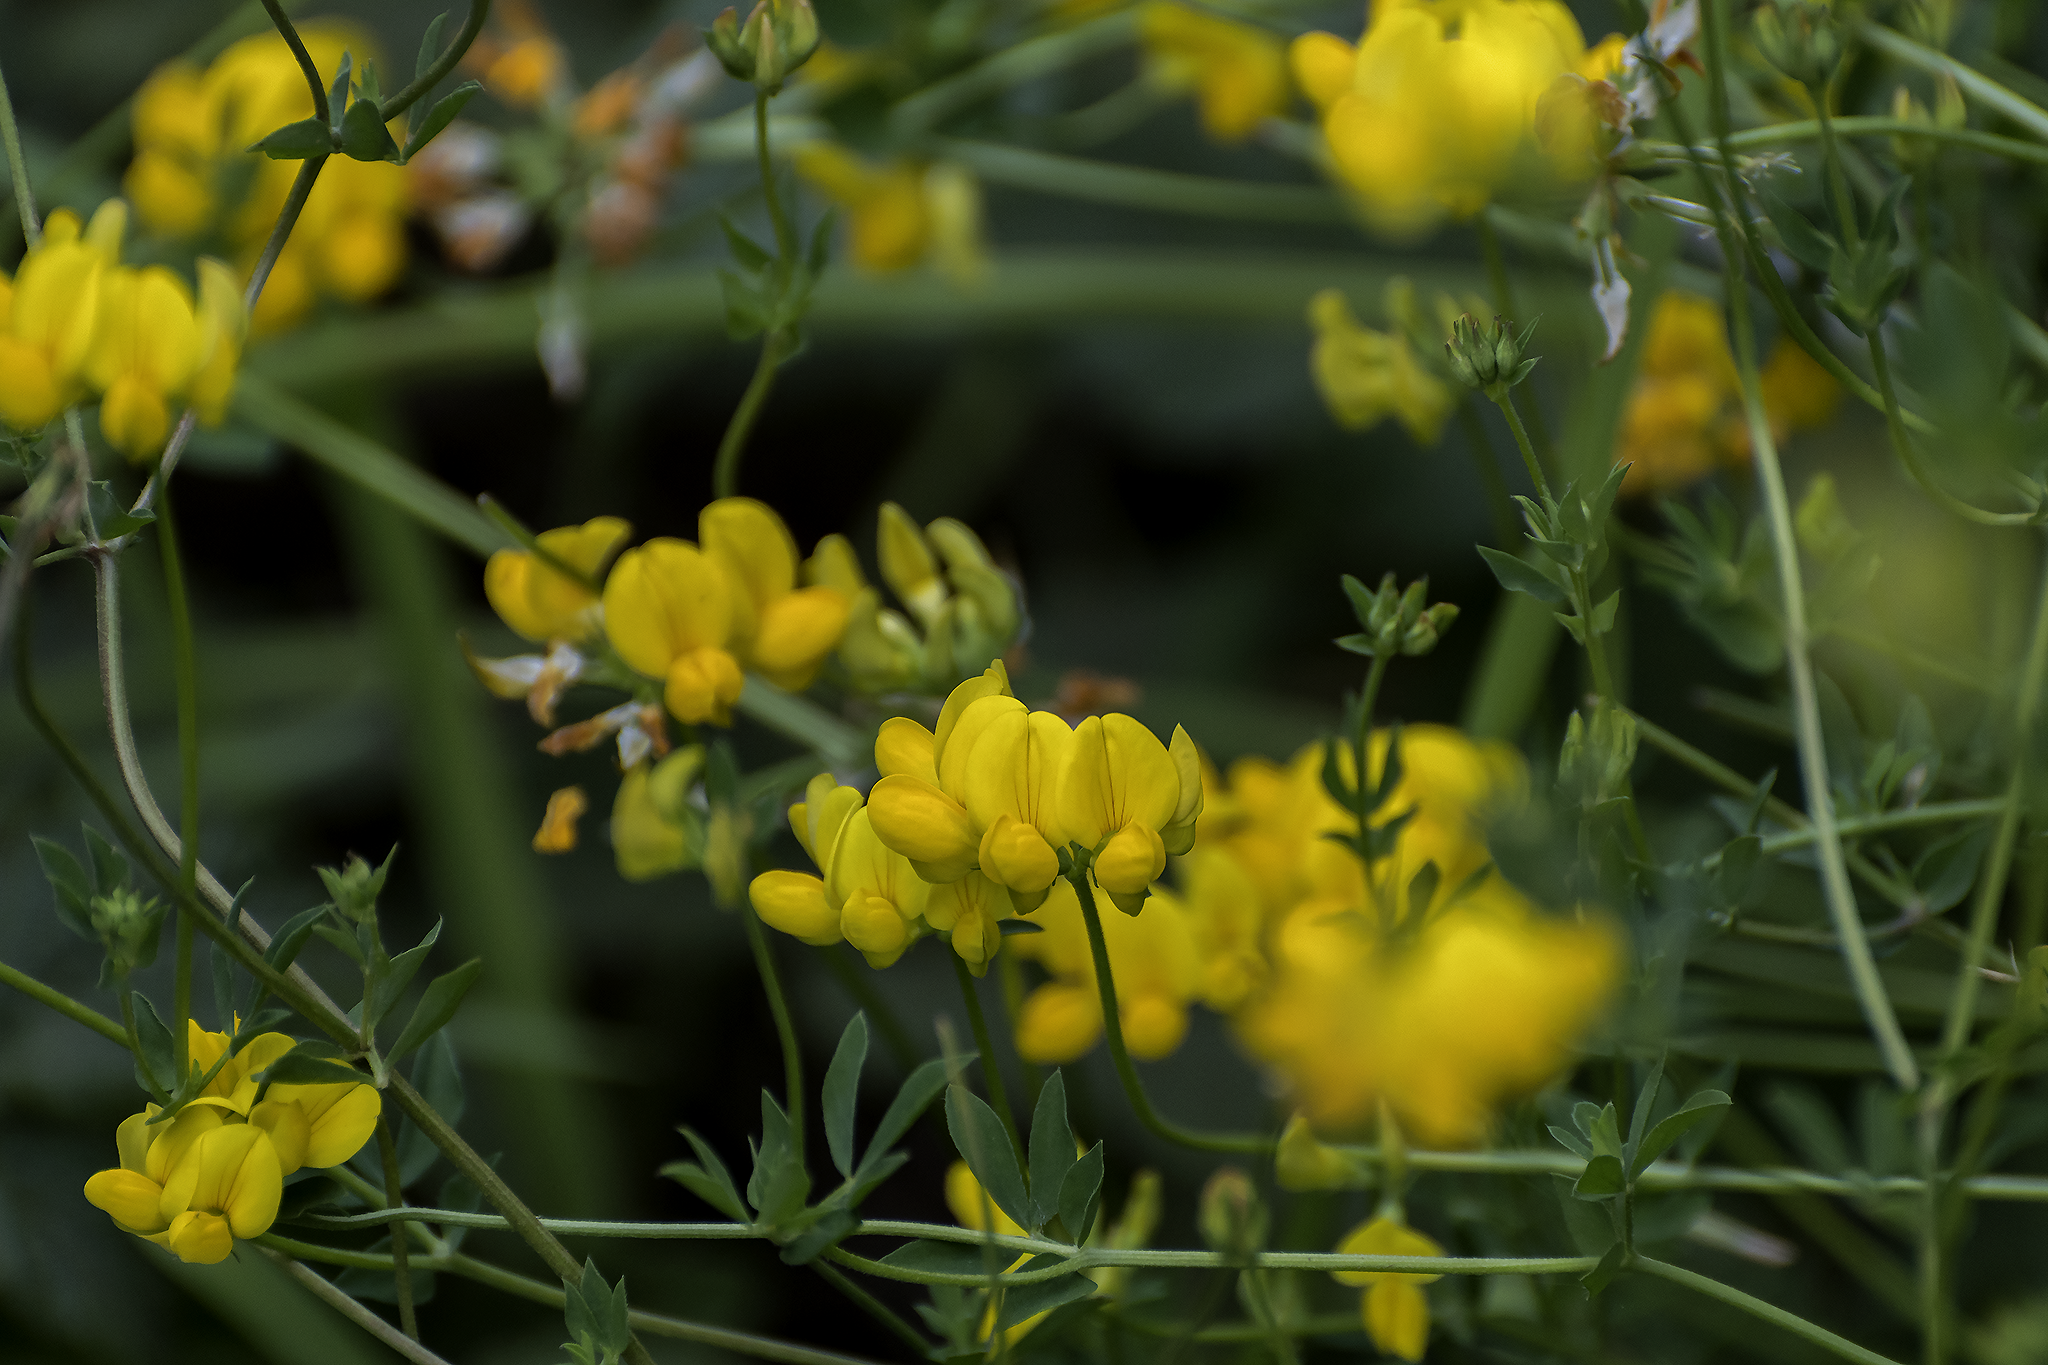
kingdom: Plantae
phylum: Tracheophyta
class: Magnoliopsida
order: Fabales
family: Fabaceae
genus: Lotus
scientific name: Lotus corniculatus
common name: Common bird's-foot-trefoil
